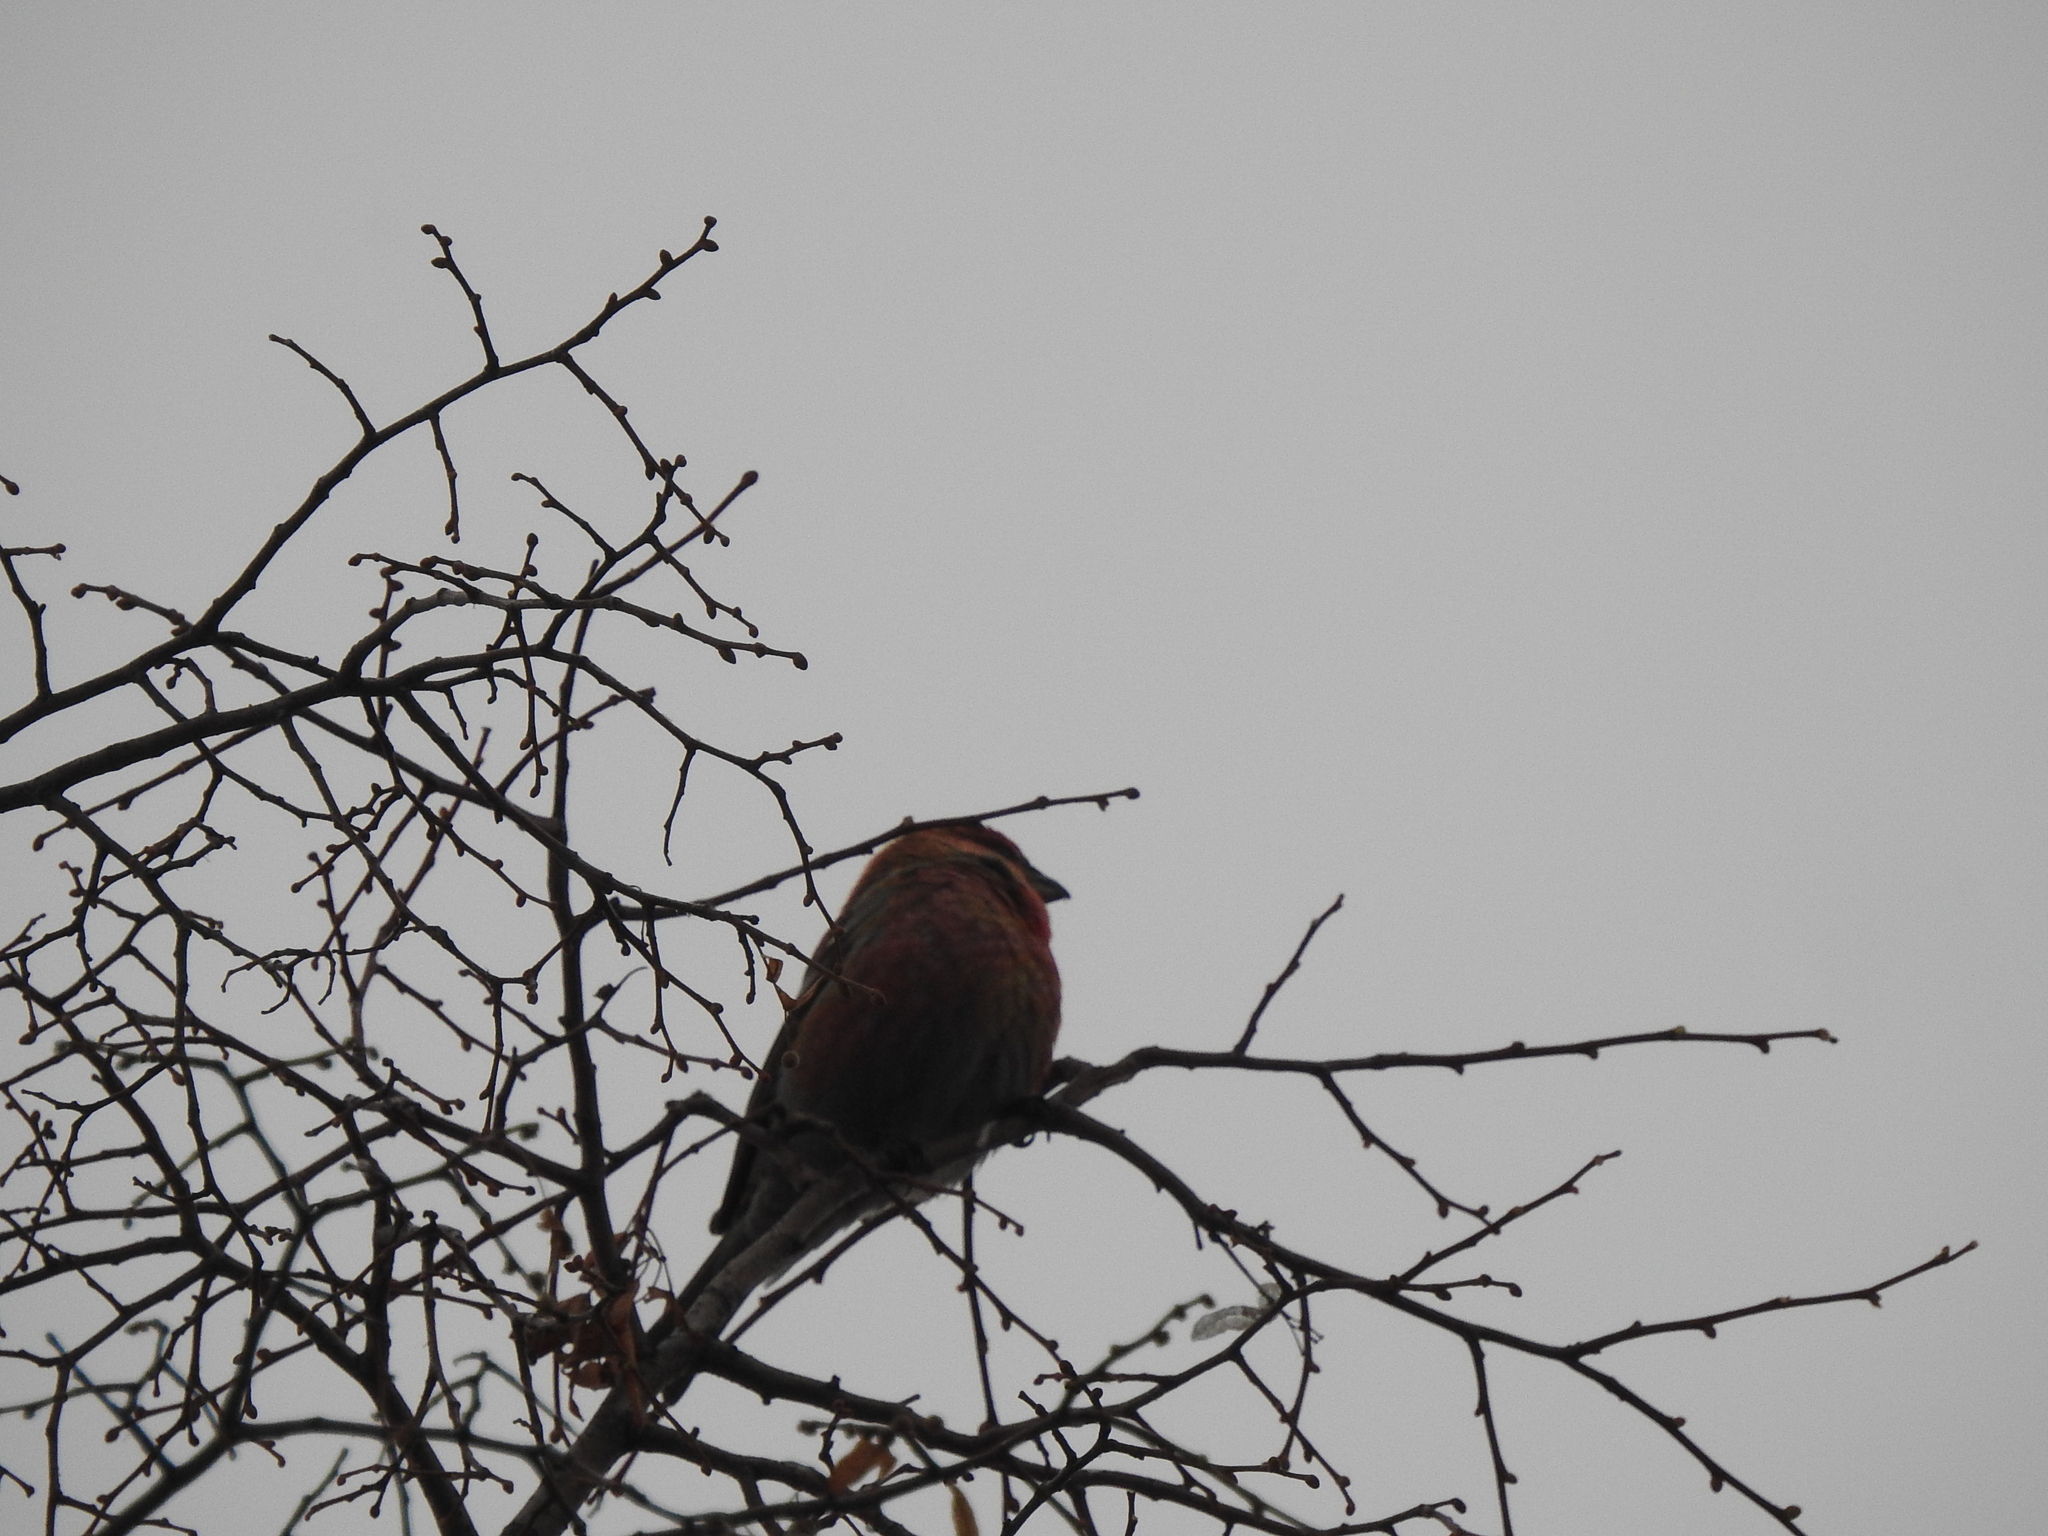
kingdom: Animalia
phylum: Chordata
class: Aves
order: Passeriformes
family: Fringillidae
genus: Pinicola
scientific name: Pinicola enucleator
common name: Pine grosbeak
